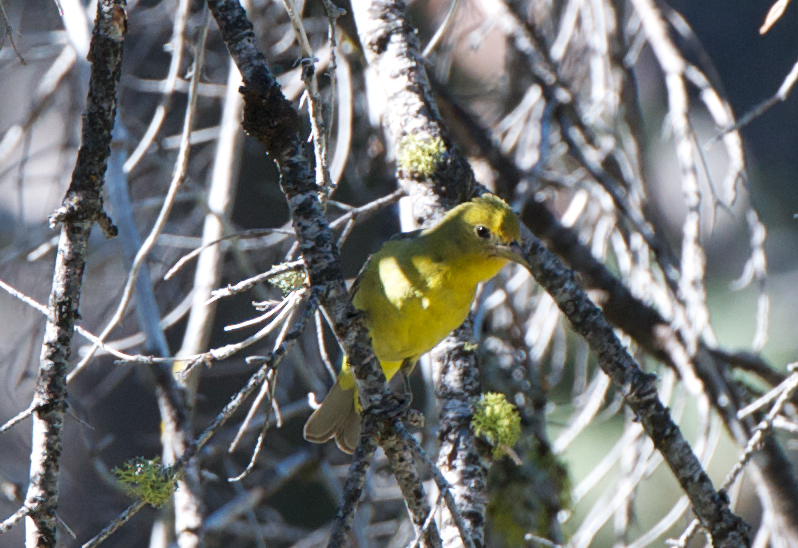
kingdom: Animalia
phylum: Chordata
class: Aves
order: Passeriformes
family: Cardinalidae
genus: Piranga
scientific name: Piranga ludoviciana
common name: Western tanager
